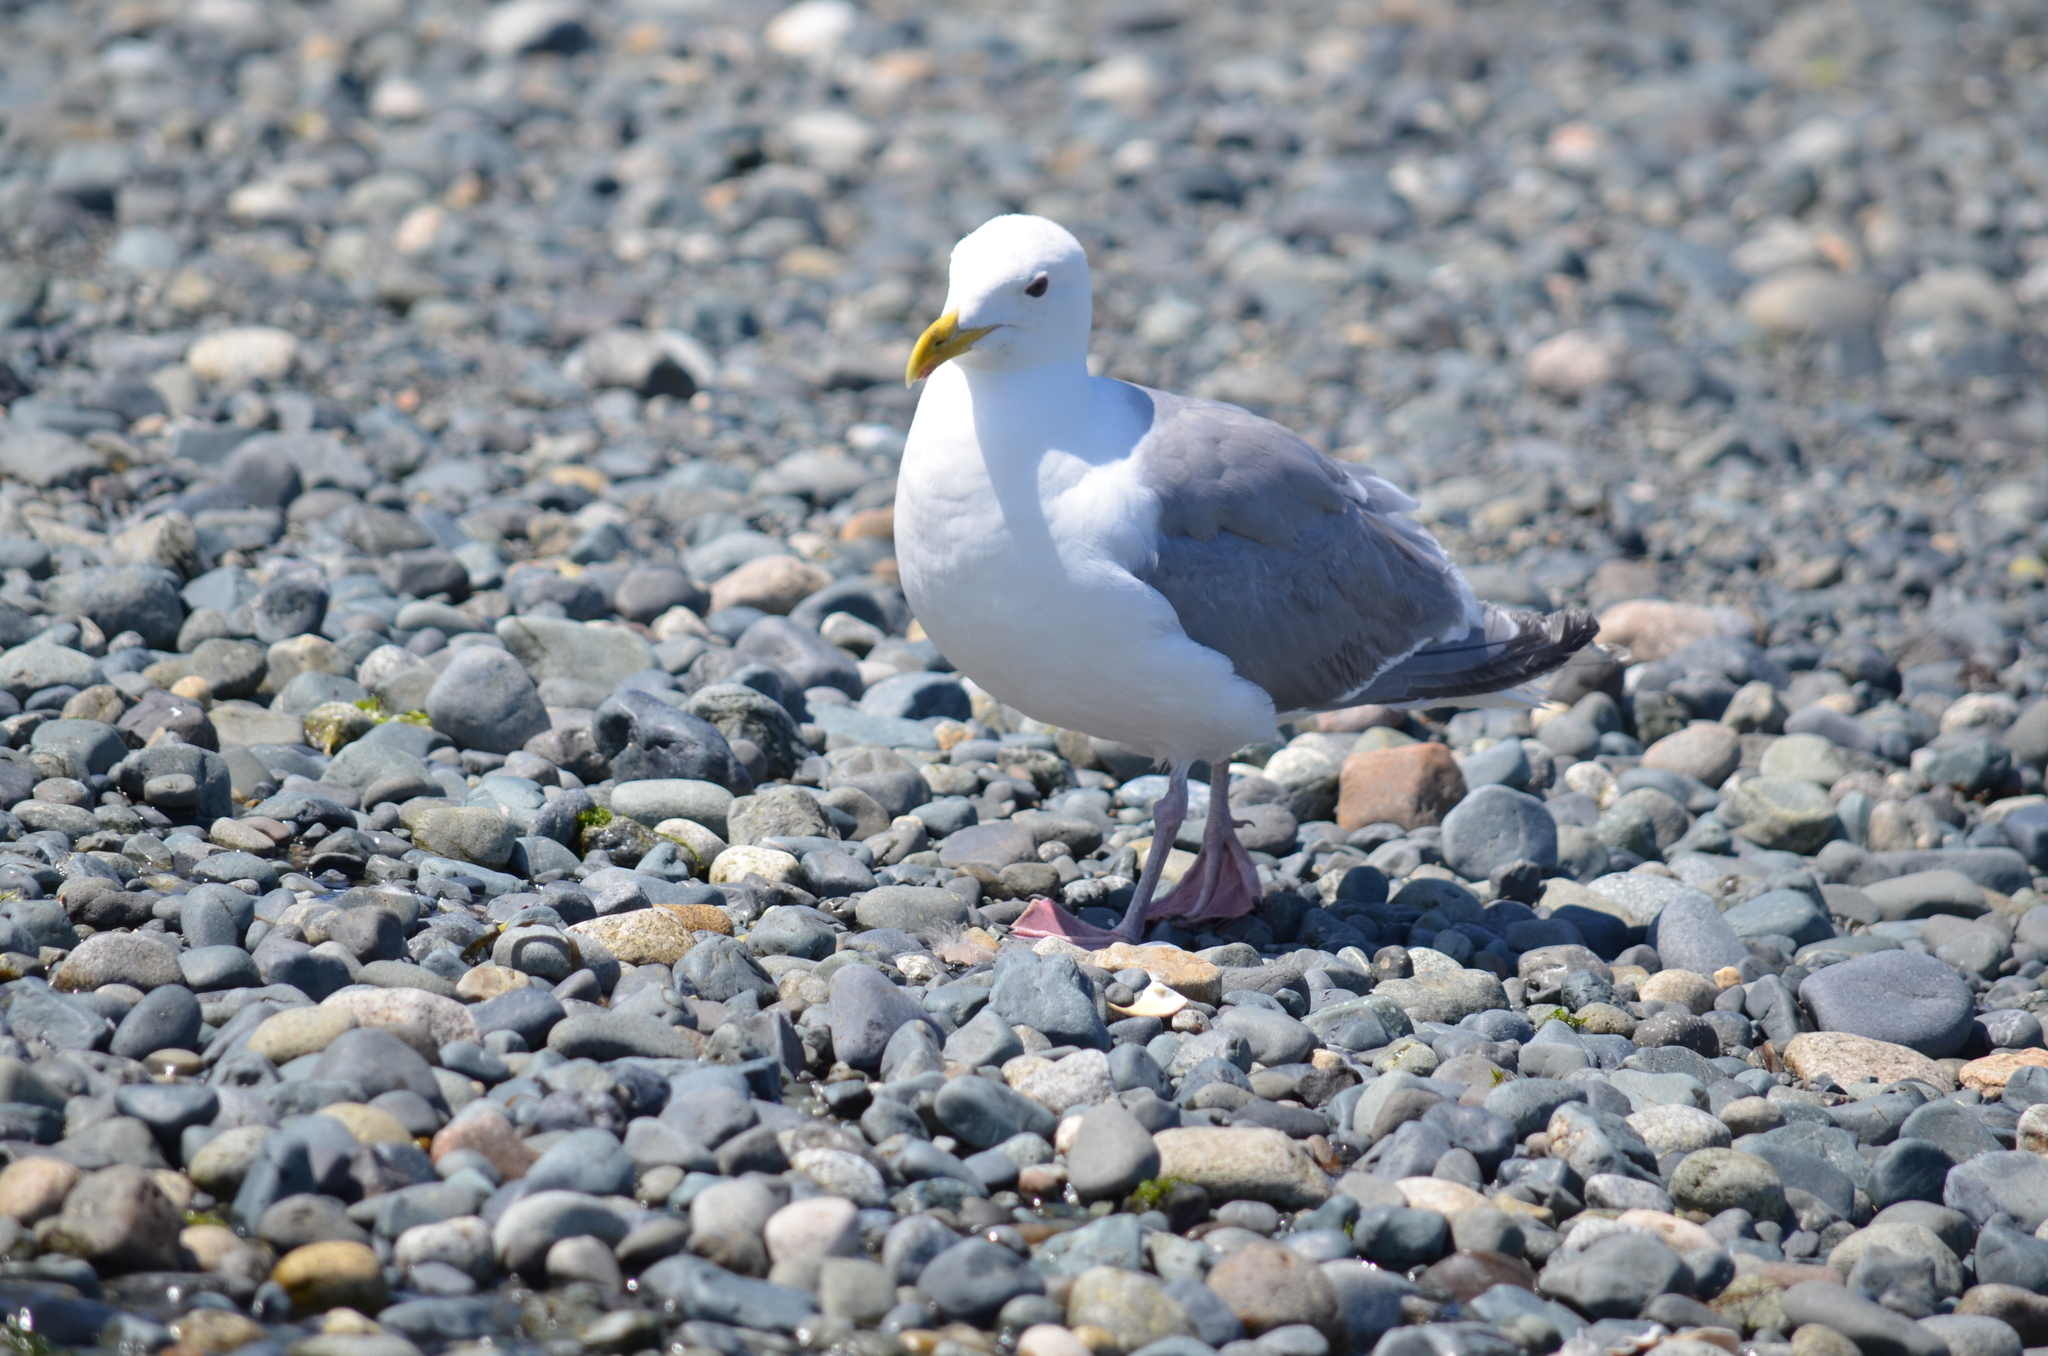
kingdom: Animalia
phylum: Chordata
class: Aves
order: Charadriiformes
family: Laridae
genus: Larus
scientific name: Larus glaucescens
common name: Glaucous-winged gull
